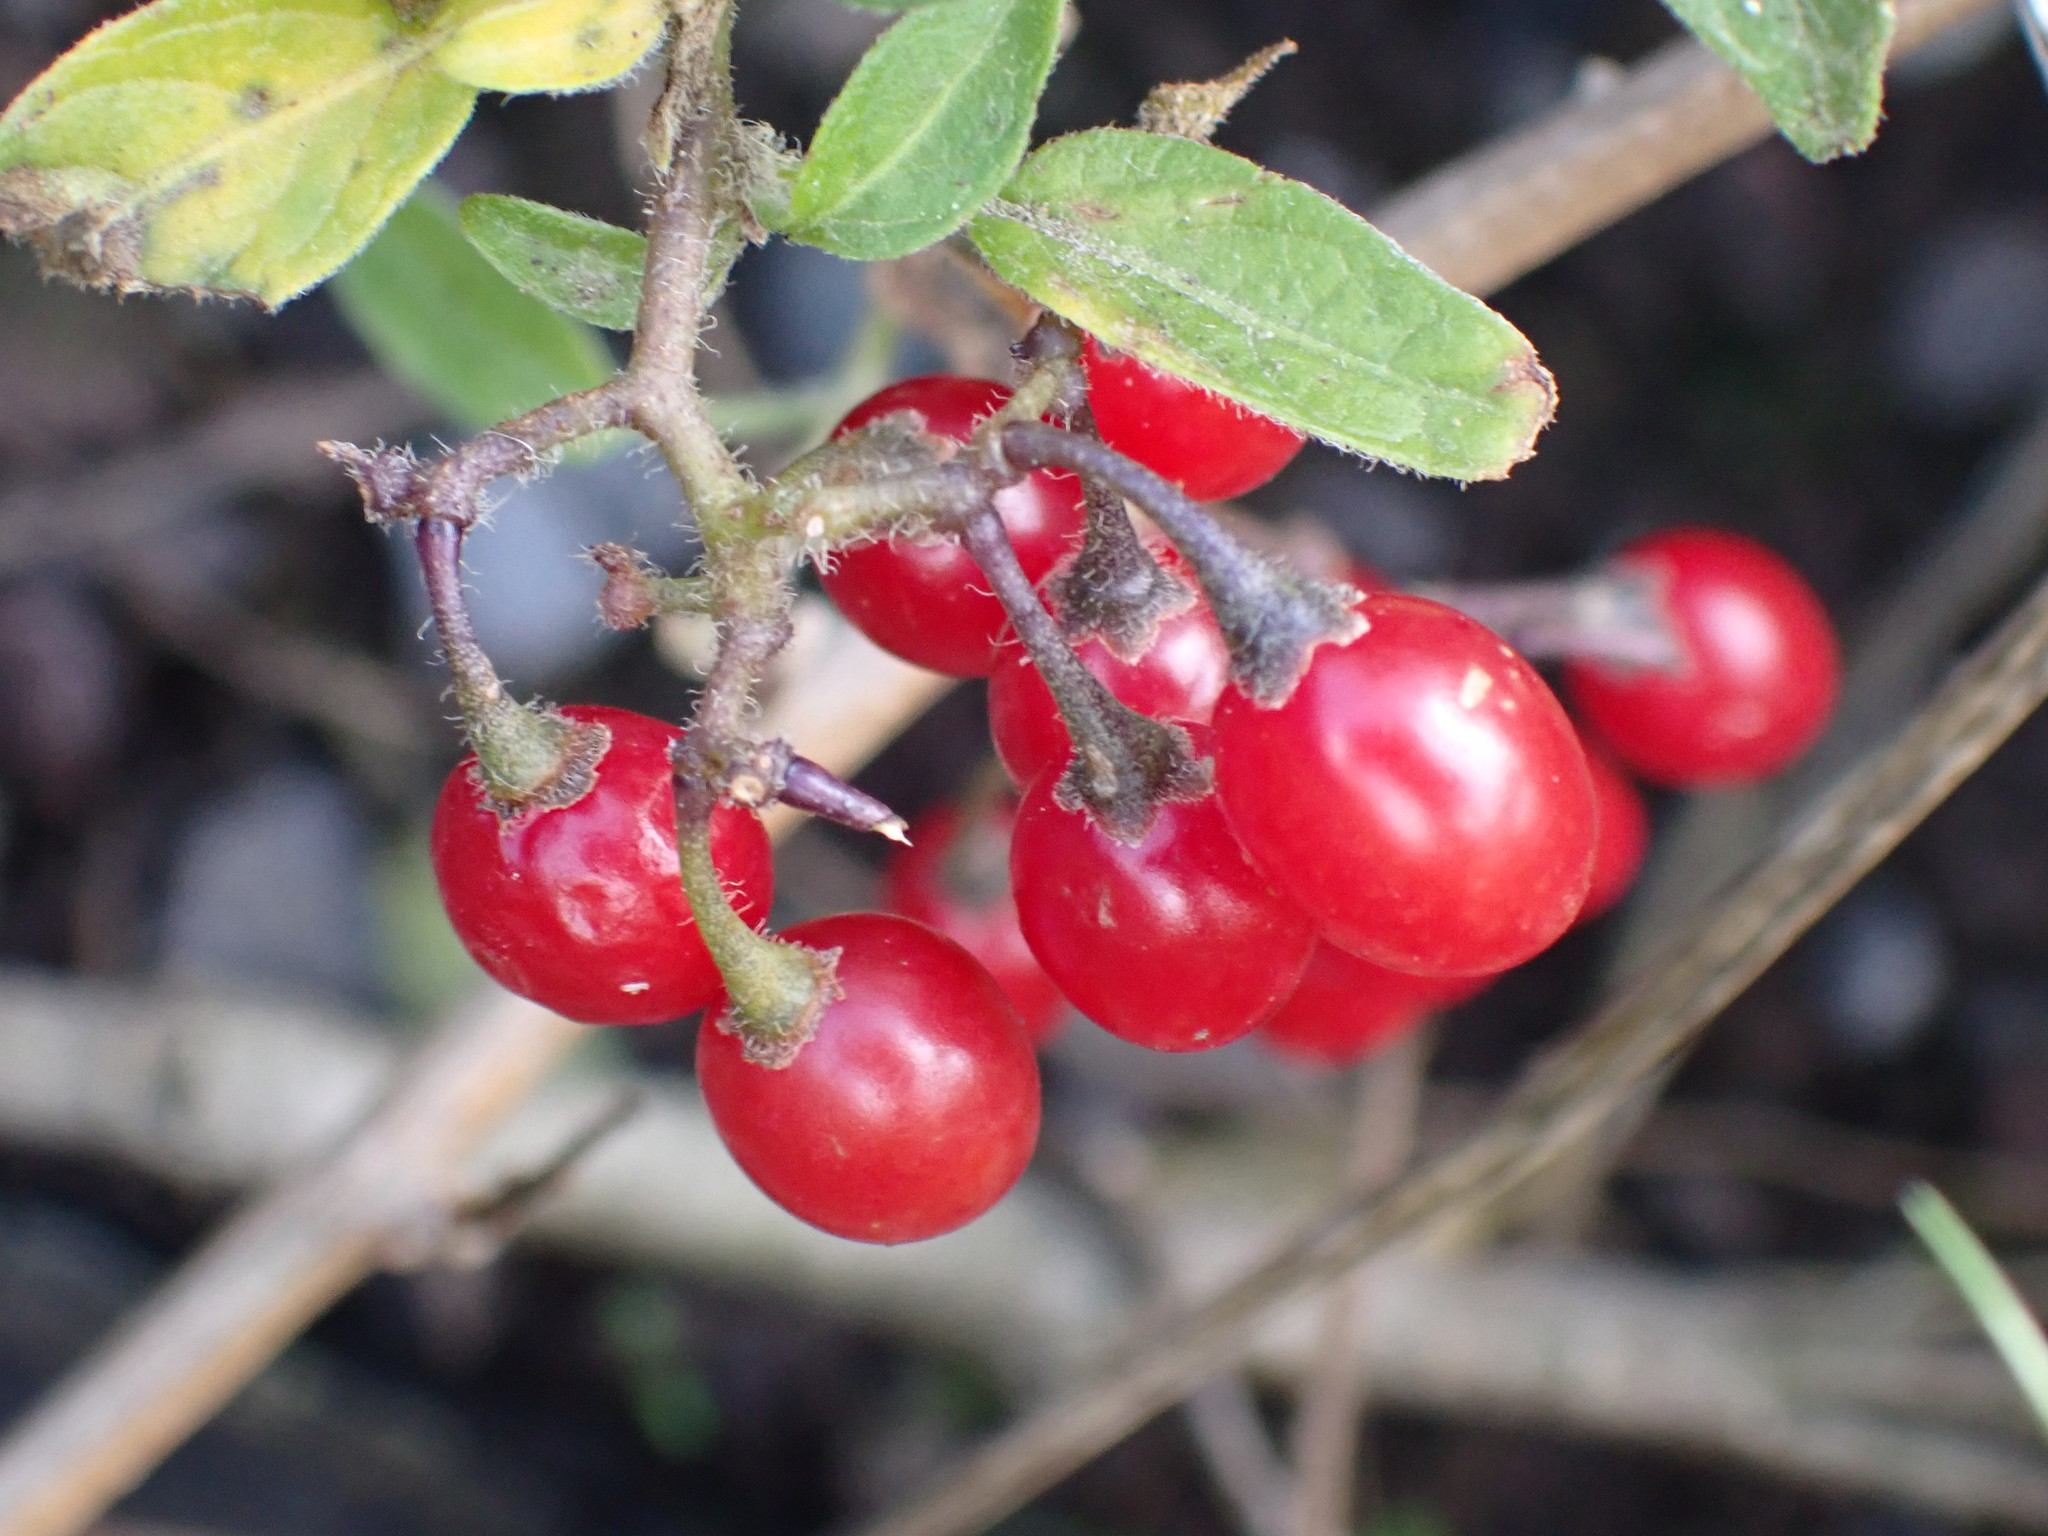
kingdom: Plantae
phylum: Tracheophyta
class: Magnoliopsida
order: Solanales
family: Solanaceae
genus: Solanum
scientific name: Solanum dulcamara
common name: Climbing nightshade
